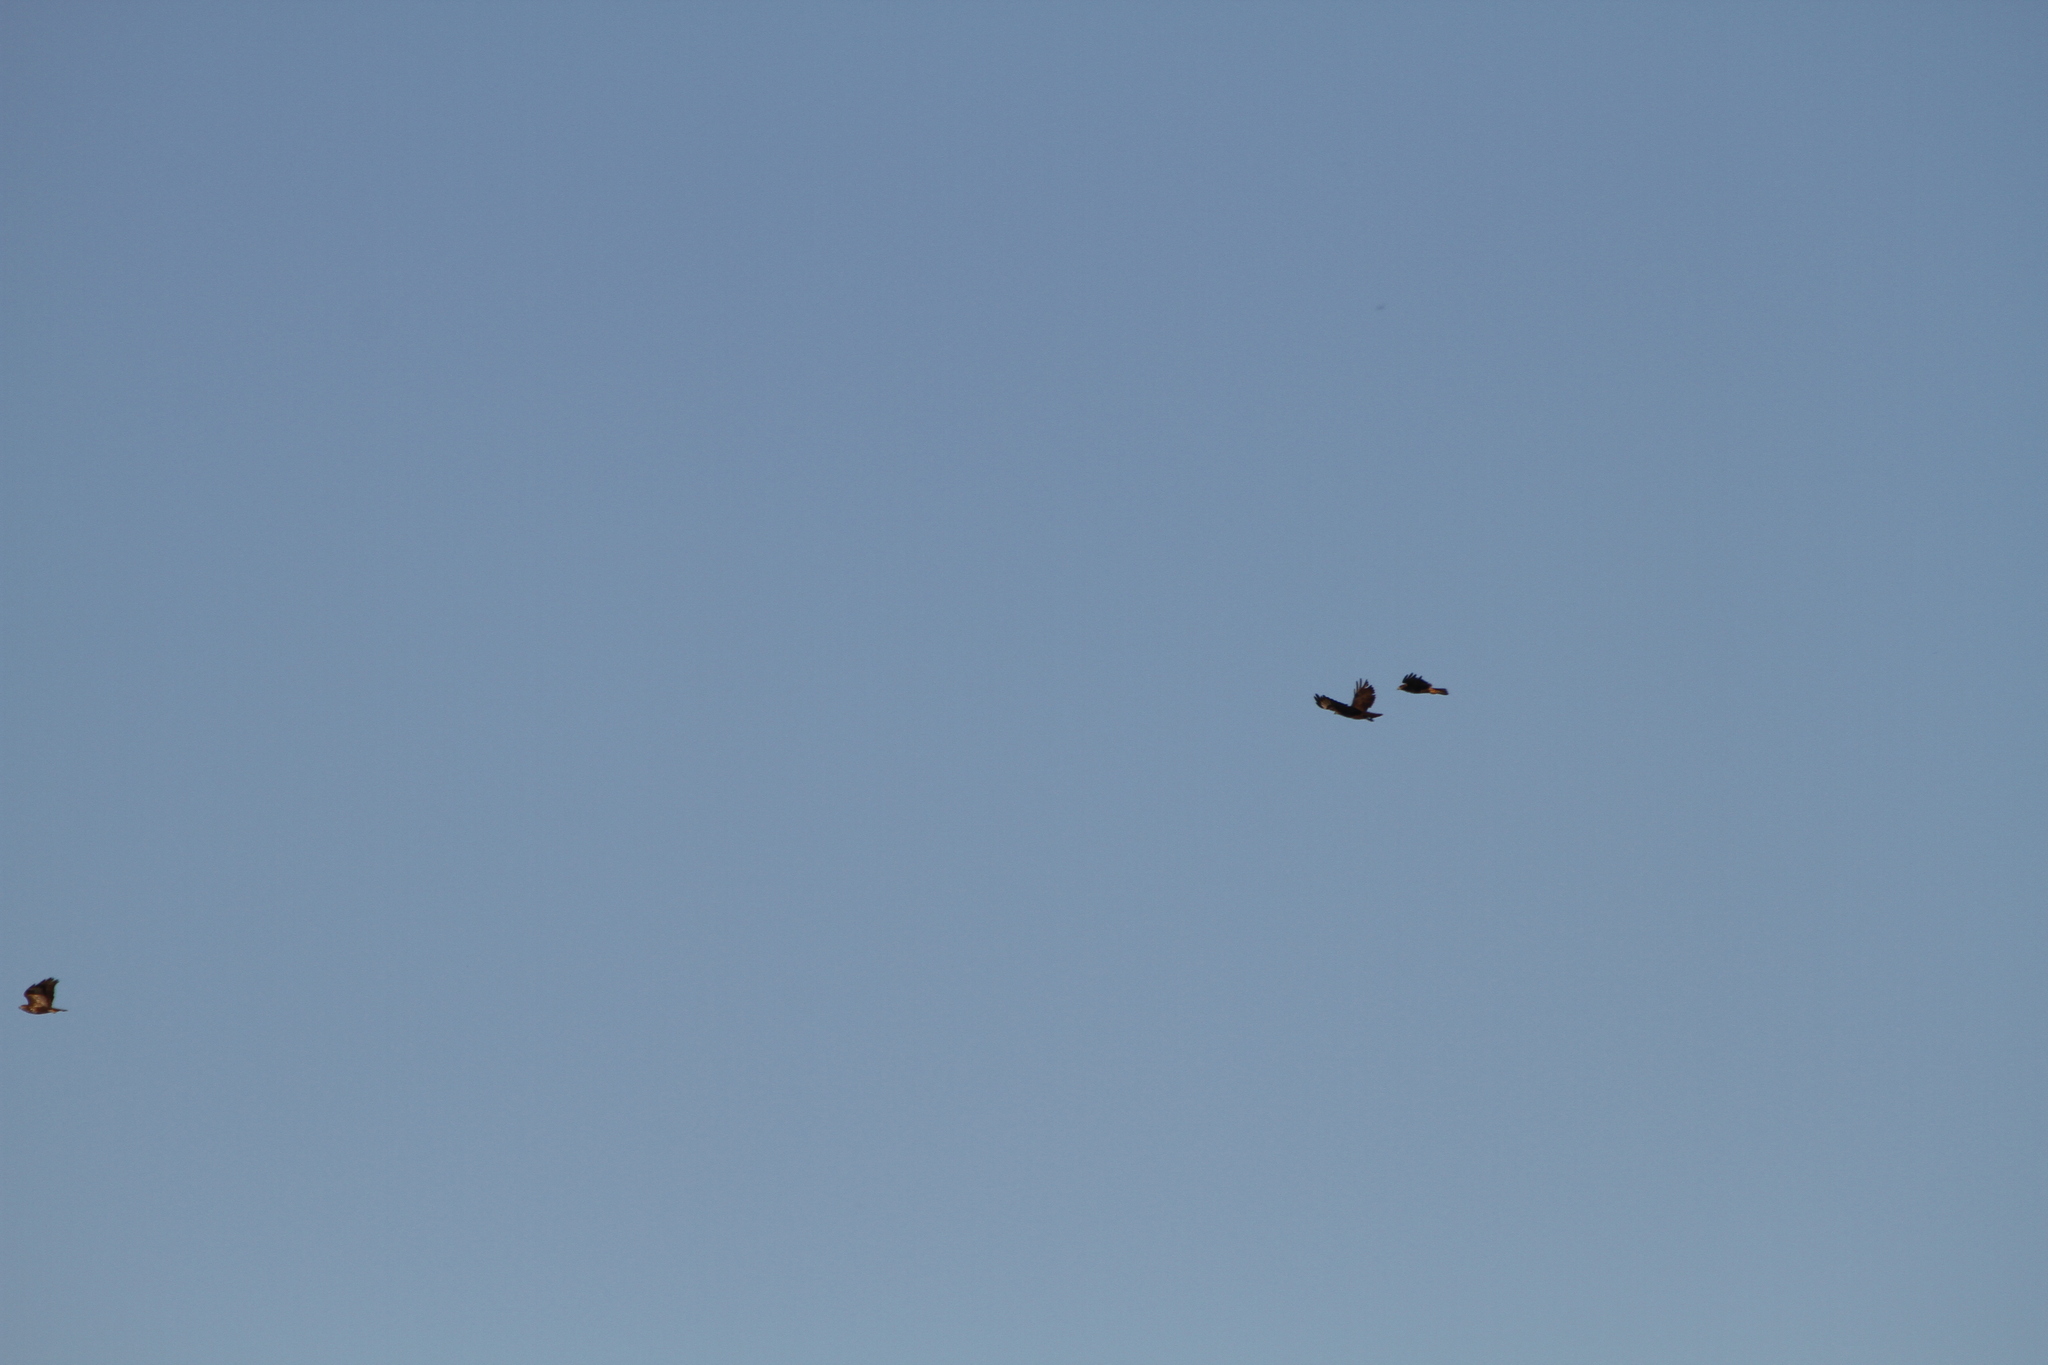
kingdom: Animalia
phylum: Chordata
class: Aves
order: Accipitriformes
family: Accipitridae
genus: Buteo
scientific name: Buteo buteo
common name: Common buzzard
